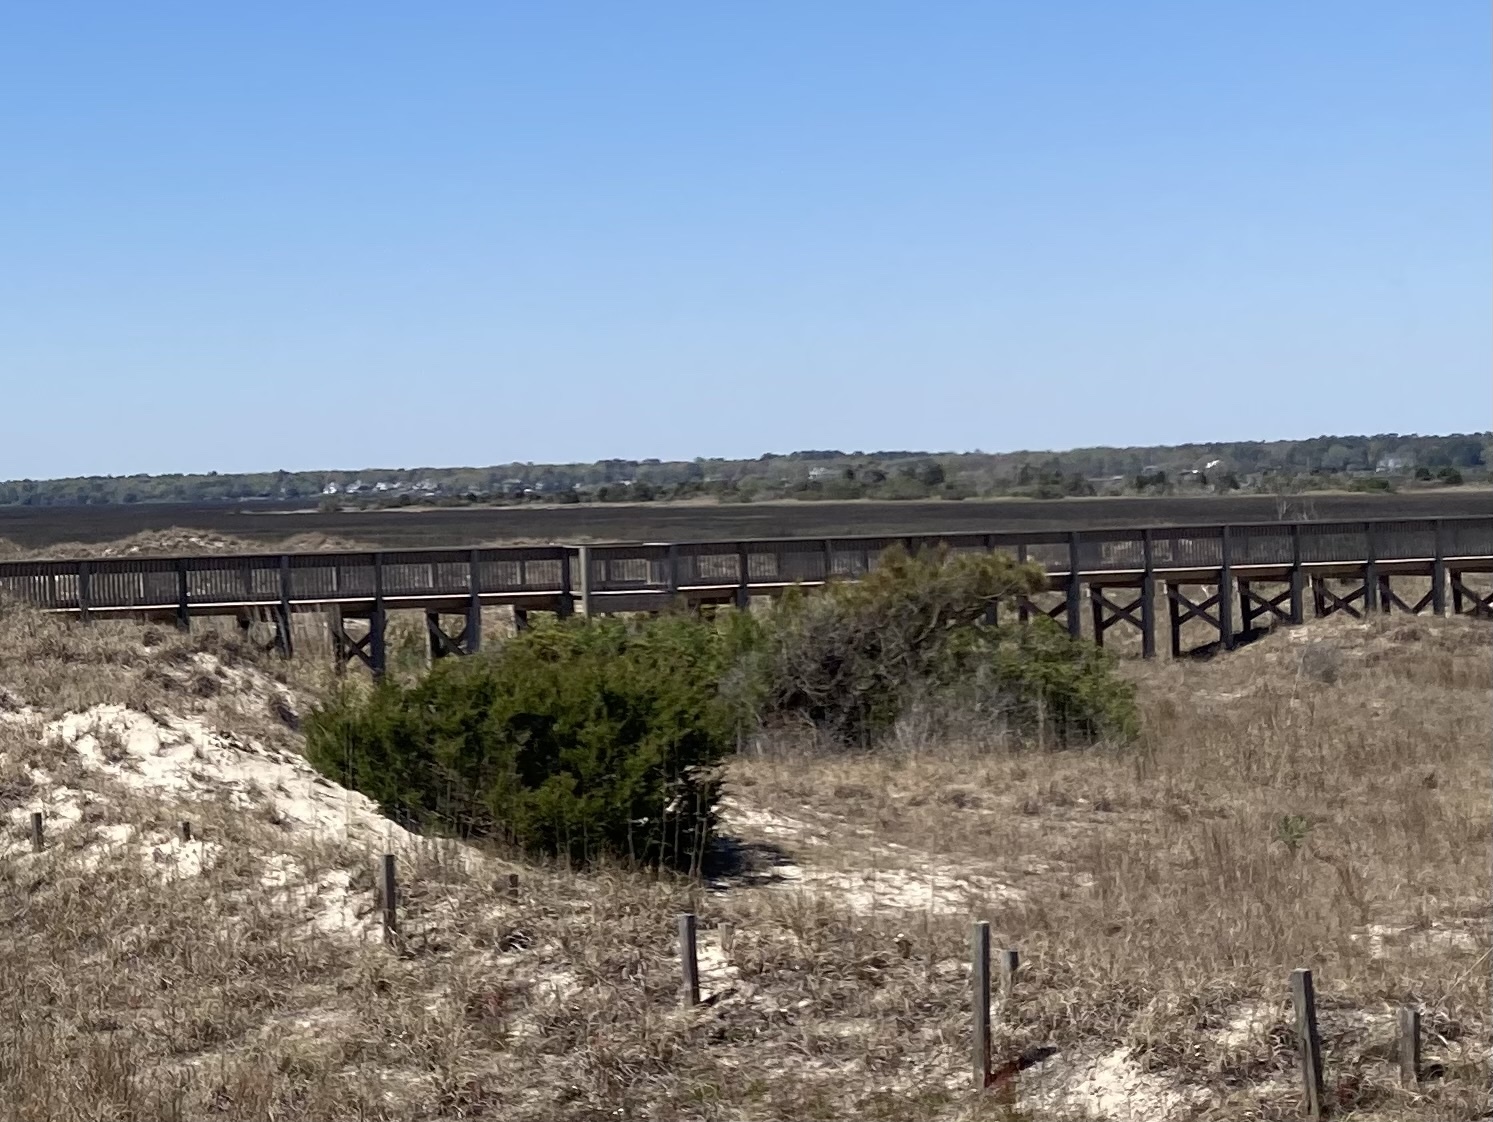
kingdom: Plantae
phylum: Tracheophyta
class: Pinopsida
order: Pinales
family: Cupressaceae
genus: Juniperus
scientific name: Juniperus virginiana
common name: Red juniper
